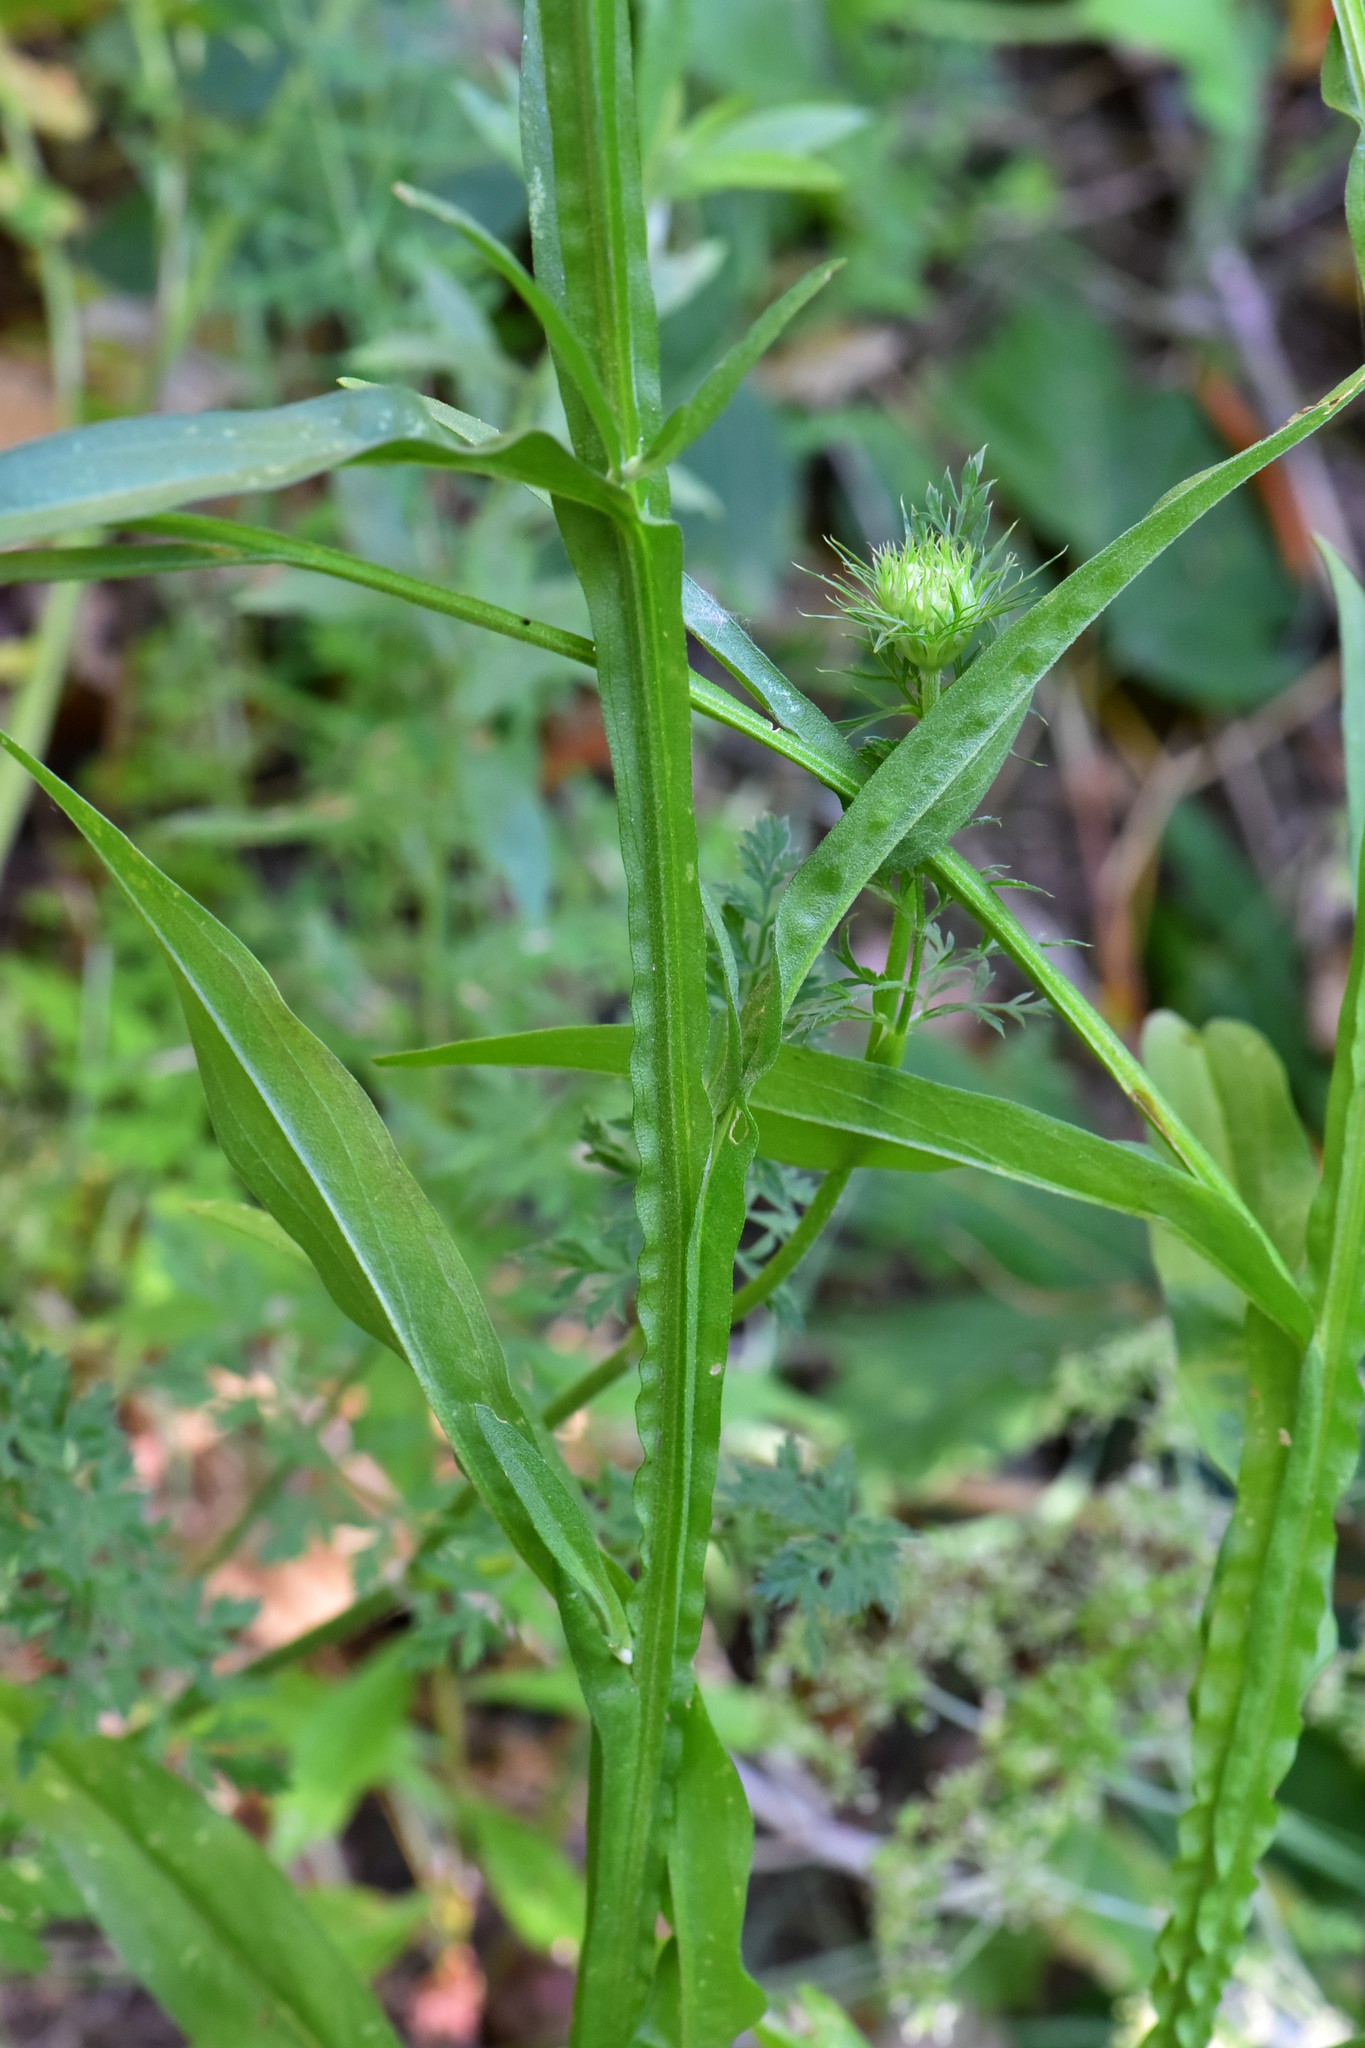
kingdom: Plantae
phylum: Tracheophyta
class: Magnoliopsida
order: Asterales
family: Asteraceae
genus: Helenium
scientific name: Helenium puberulum
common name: Sneezewort
